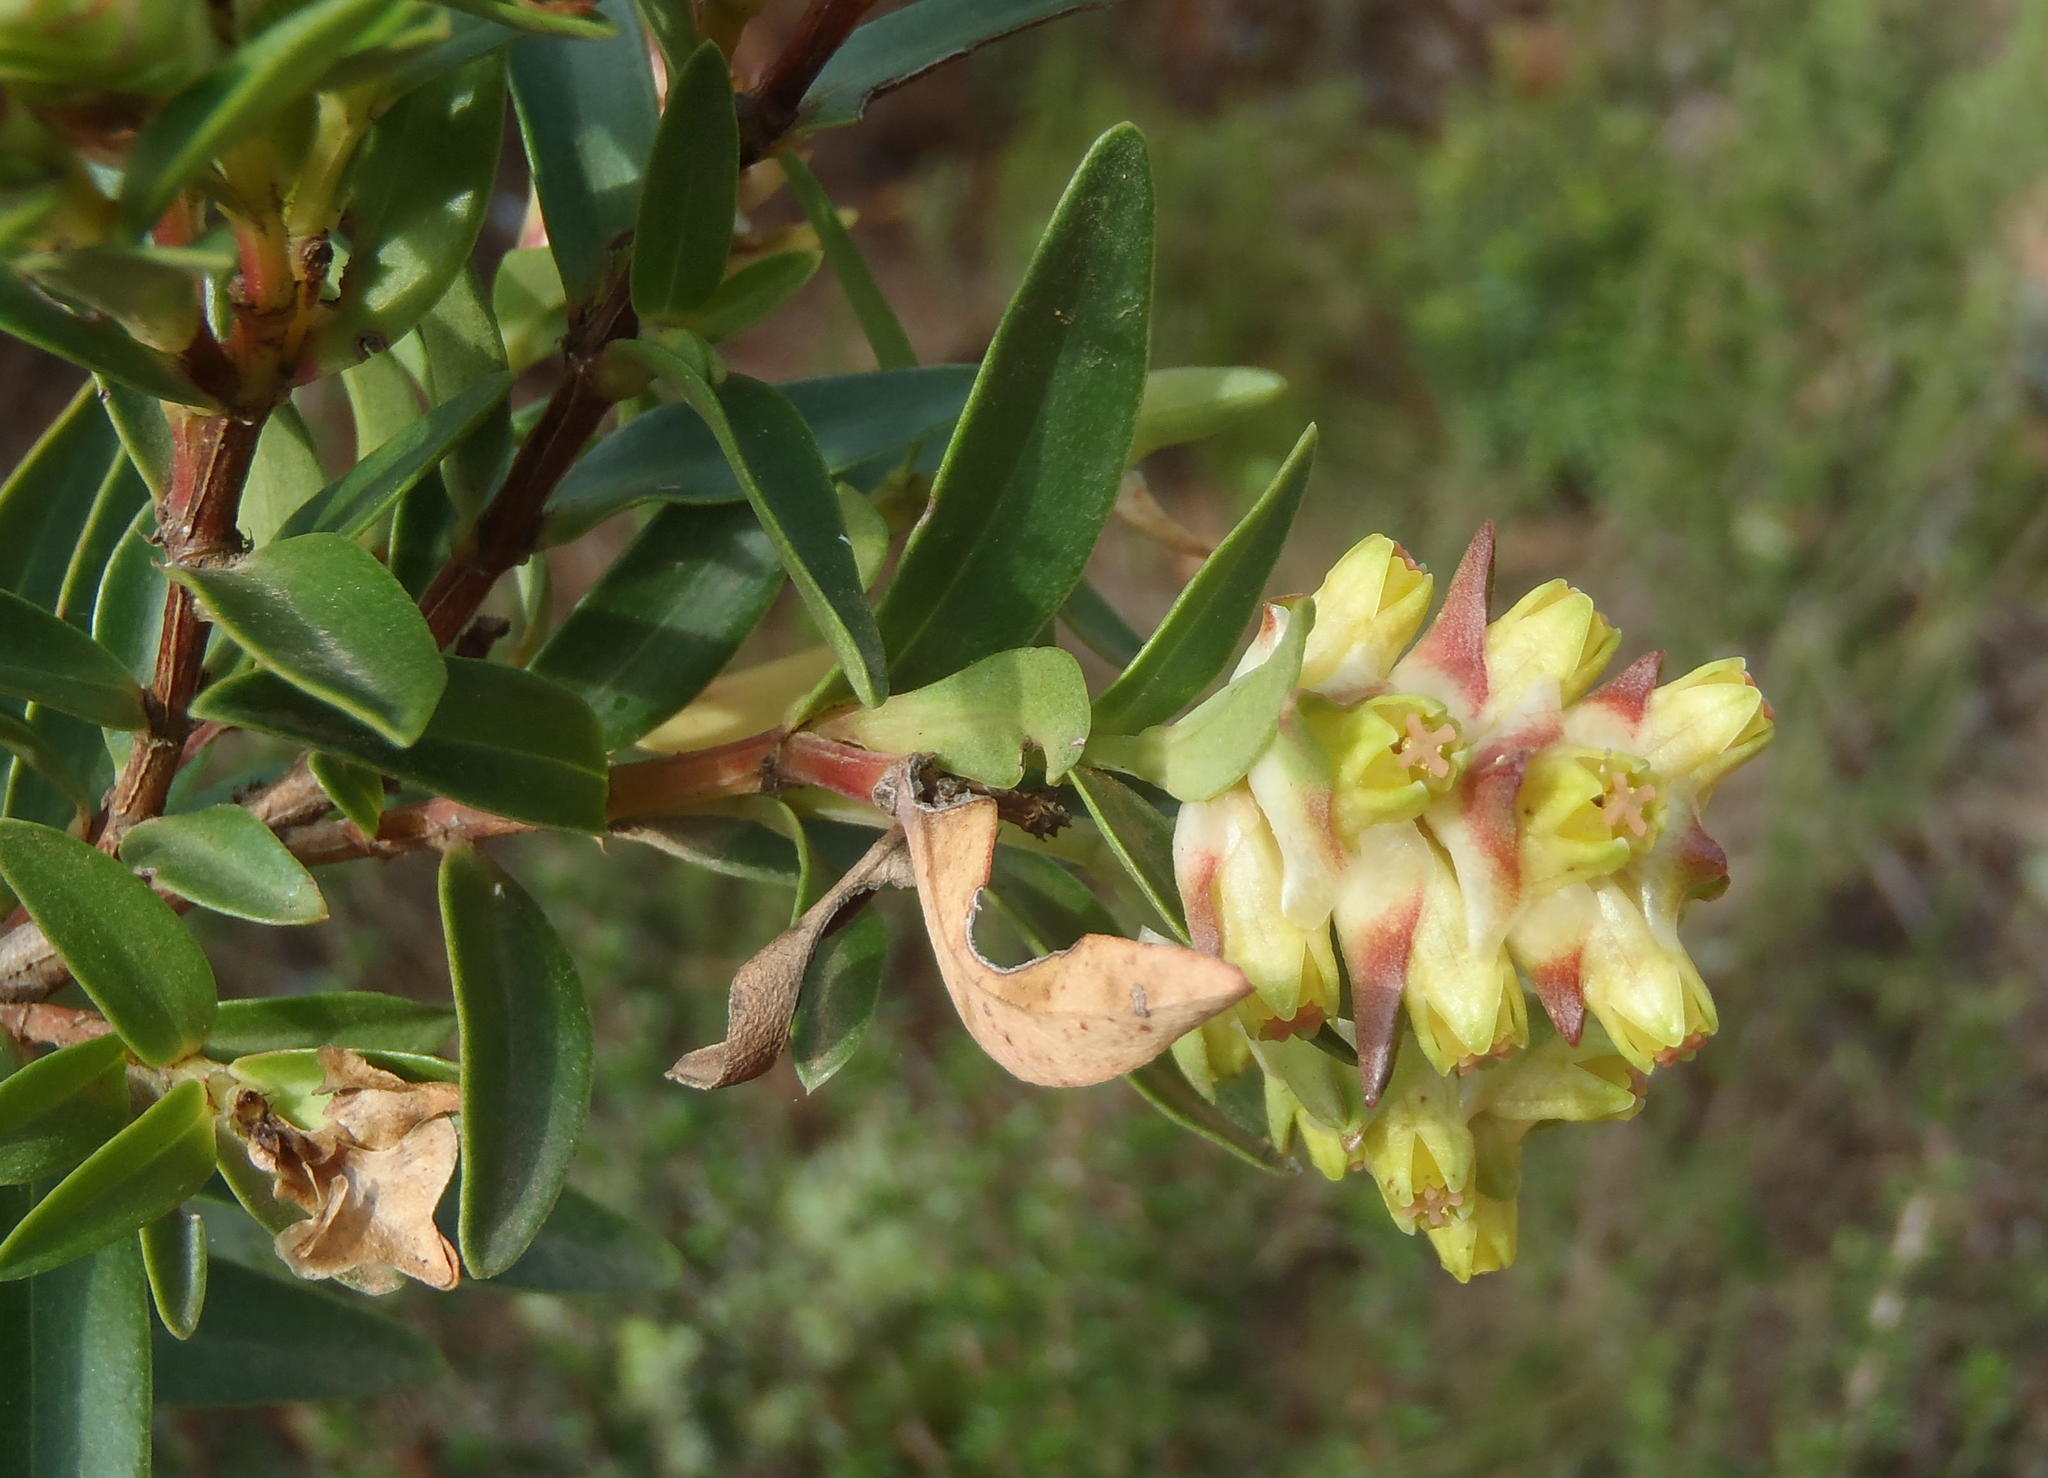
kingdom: Plantae
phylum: Tracheophyta
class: Magnoliopsida
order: Myrtales
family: Penaeaceae
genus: Penaea
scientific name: Penaea cneorum
